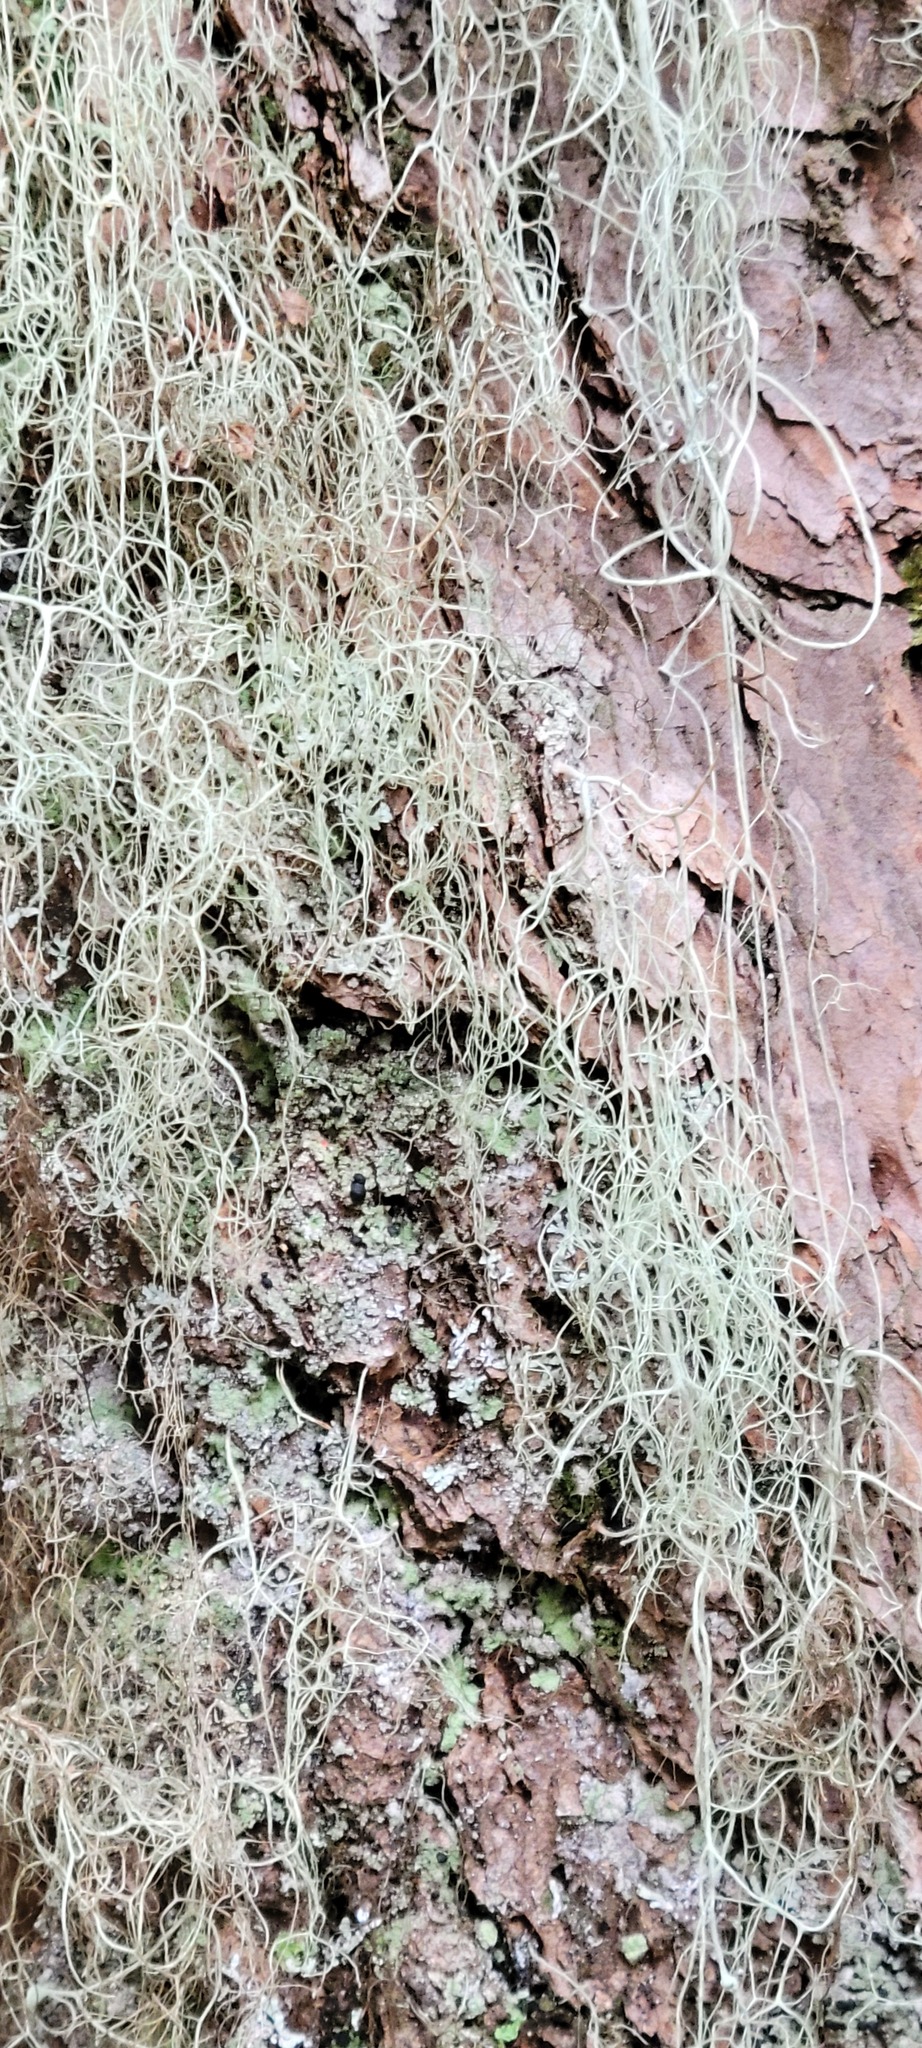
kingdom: Fungi
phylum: Ascomycota
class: Lecanoromycetes
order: Lecanorales
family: Parmeliaceae
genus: Alectoria
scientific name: Alectoria sarmentosa
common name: Witch's hair
